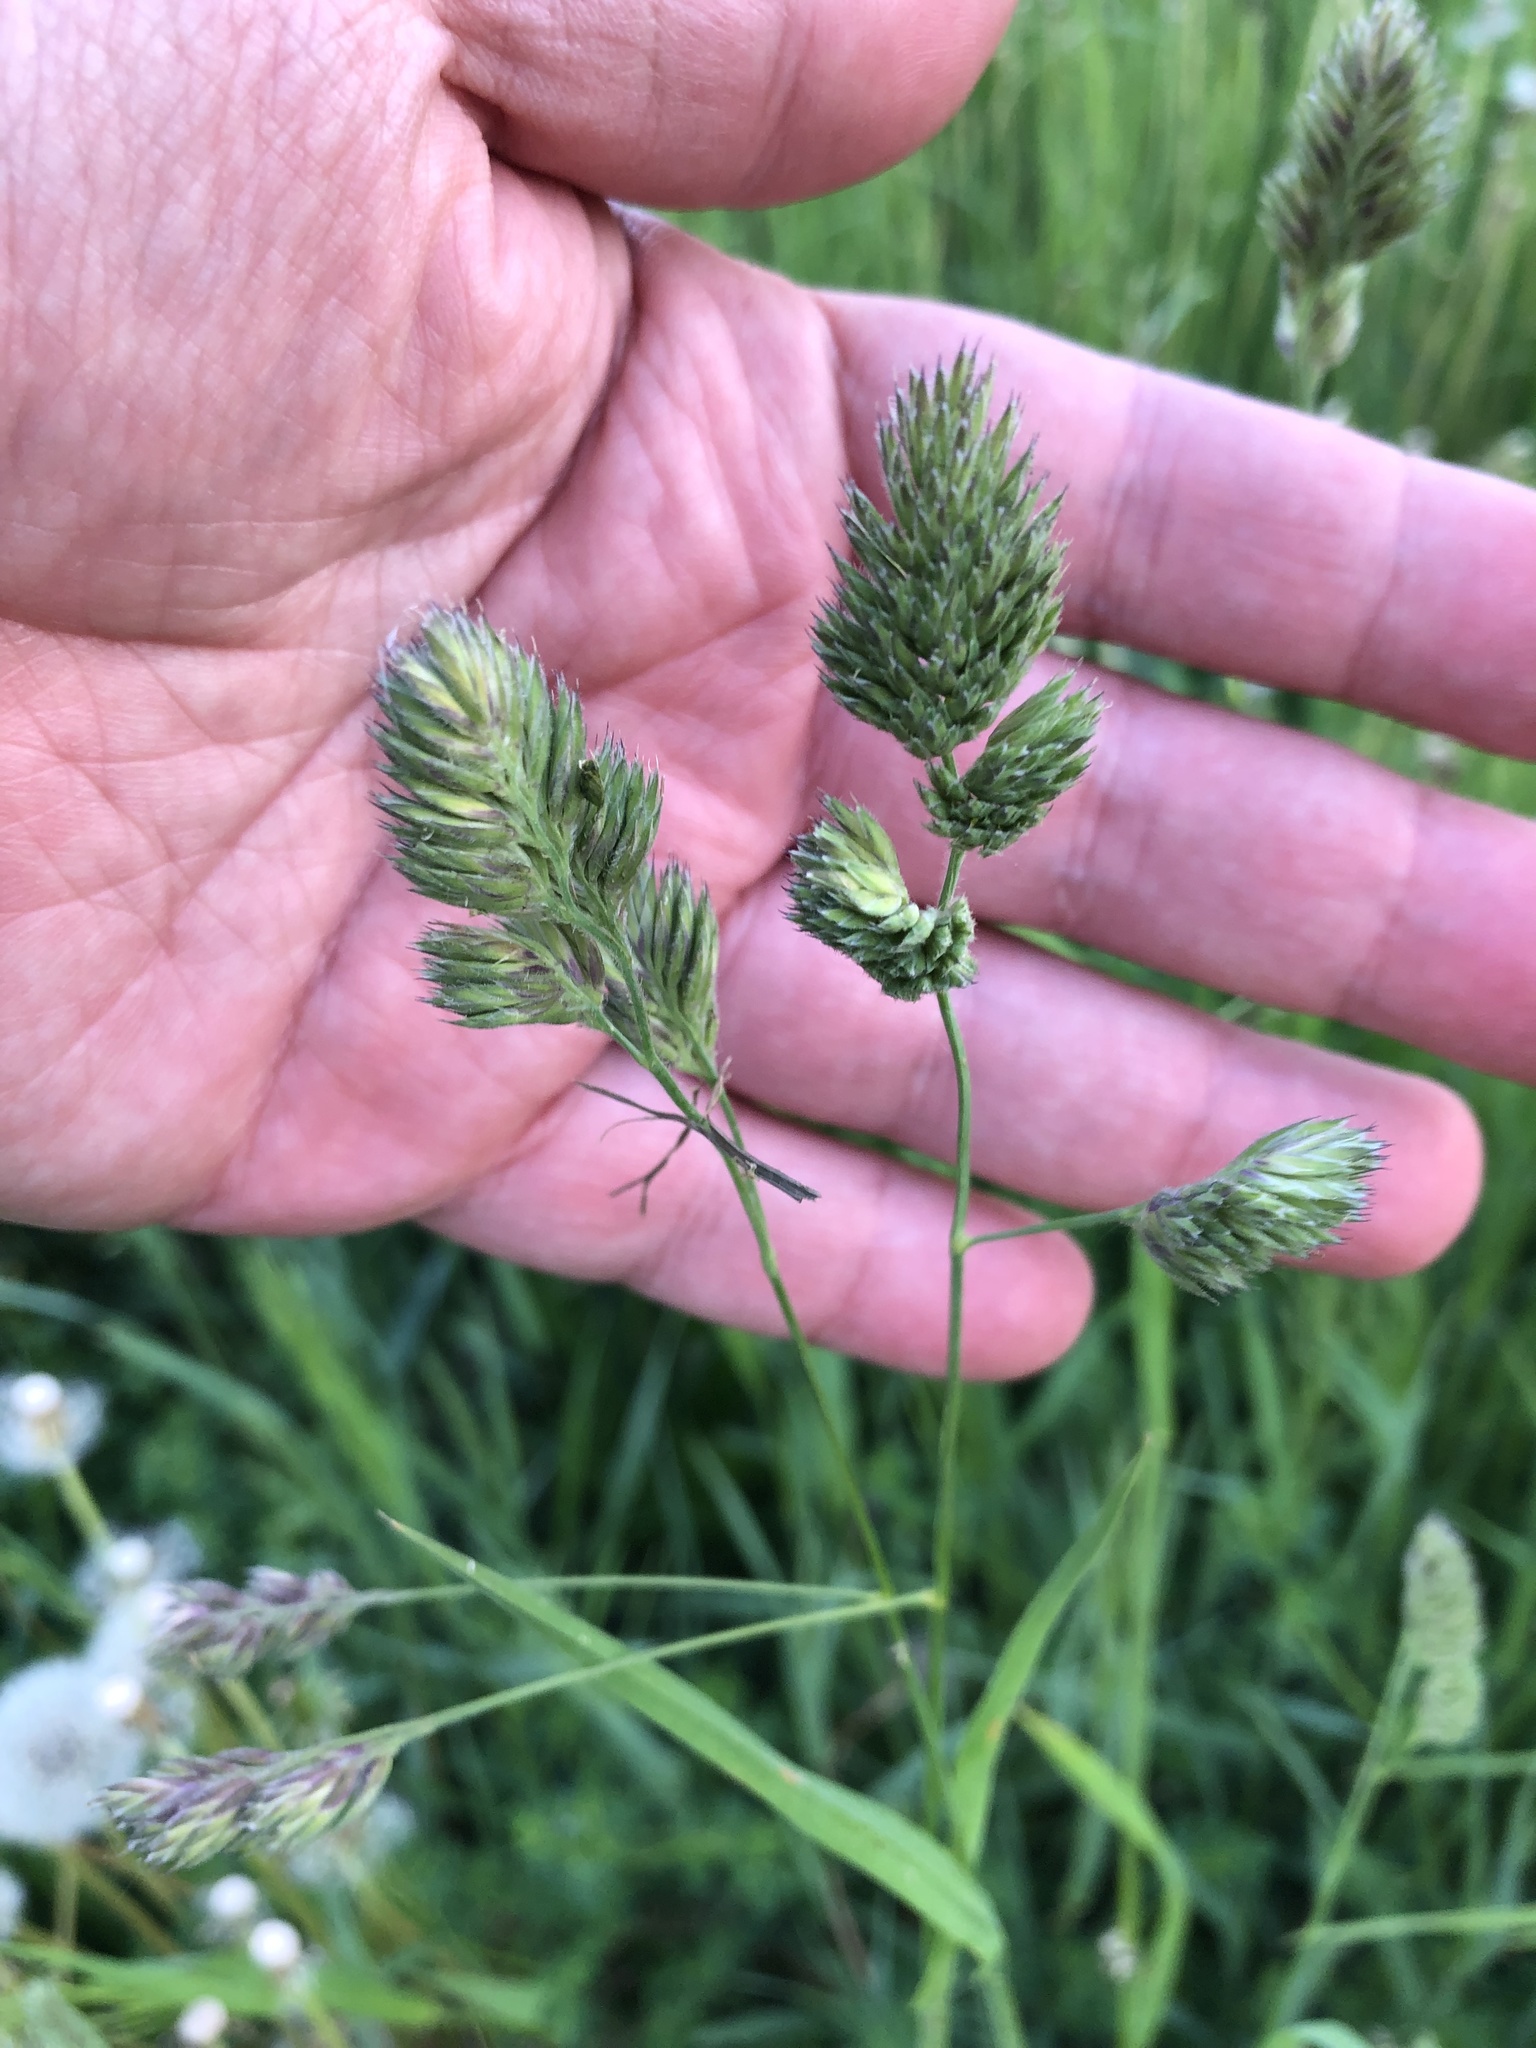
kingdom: Plantae
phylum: Tracheophyta
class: Liliopsida
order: Poales
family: Poaceae
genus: Dactylis
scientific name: Dactylis glomerata
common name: Orchardgrass
